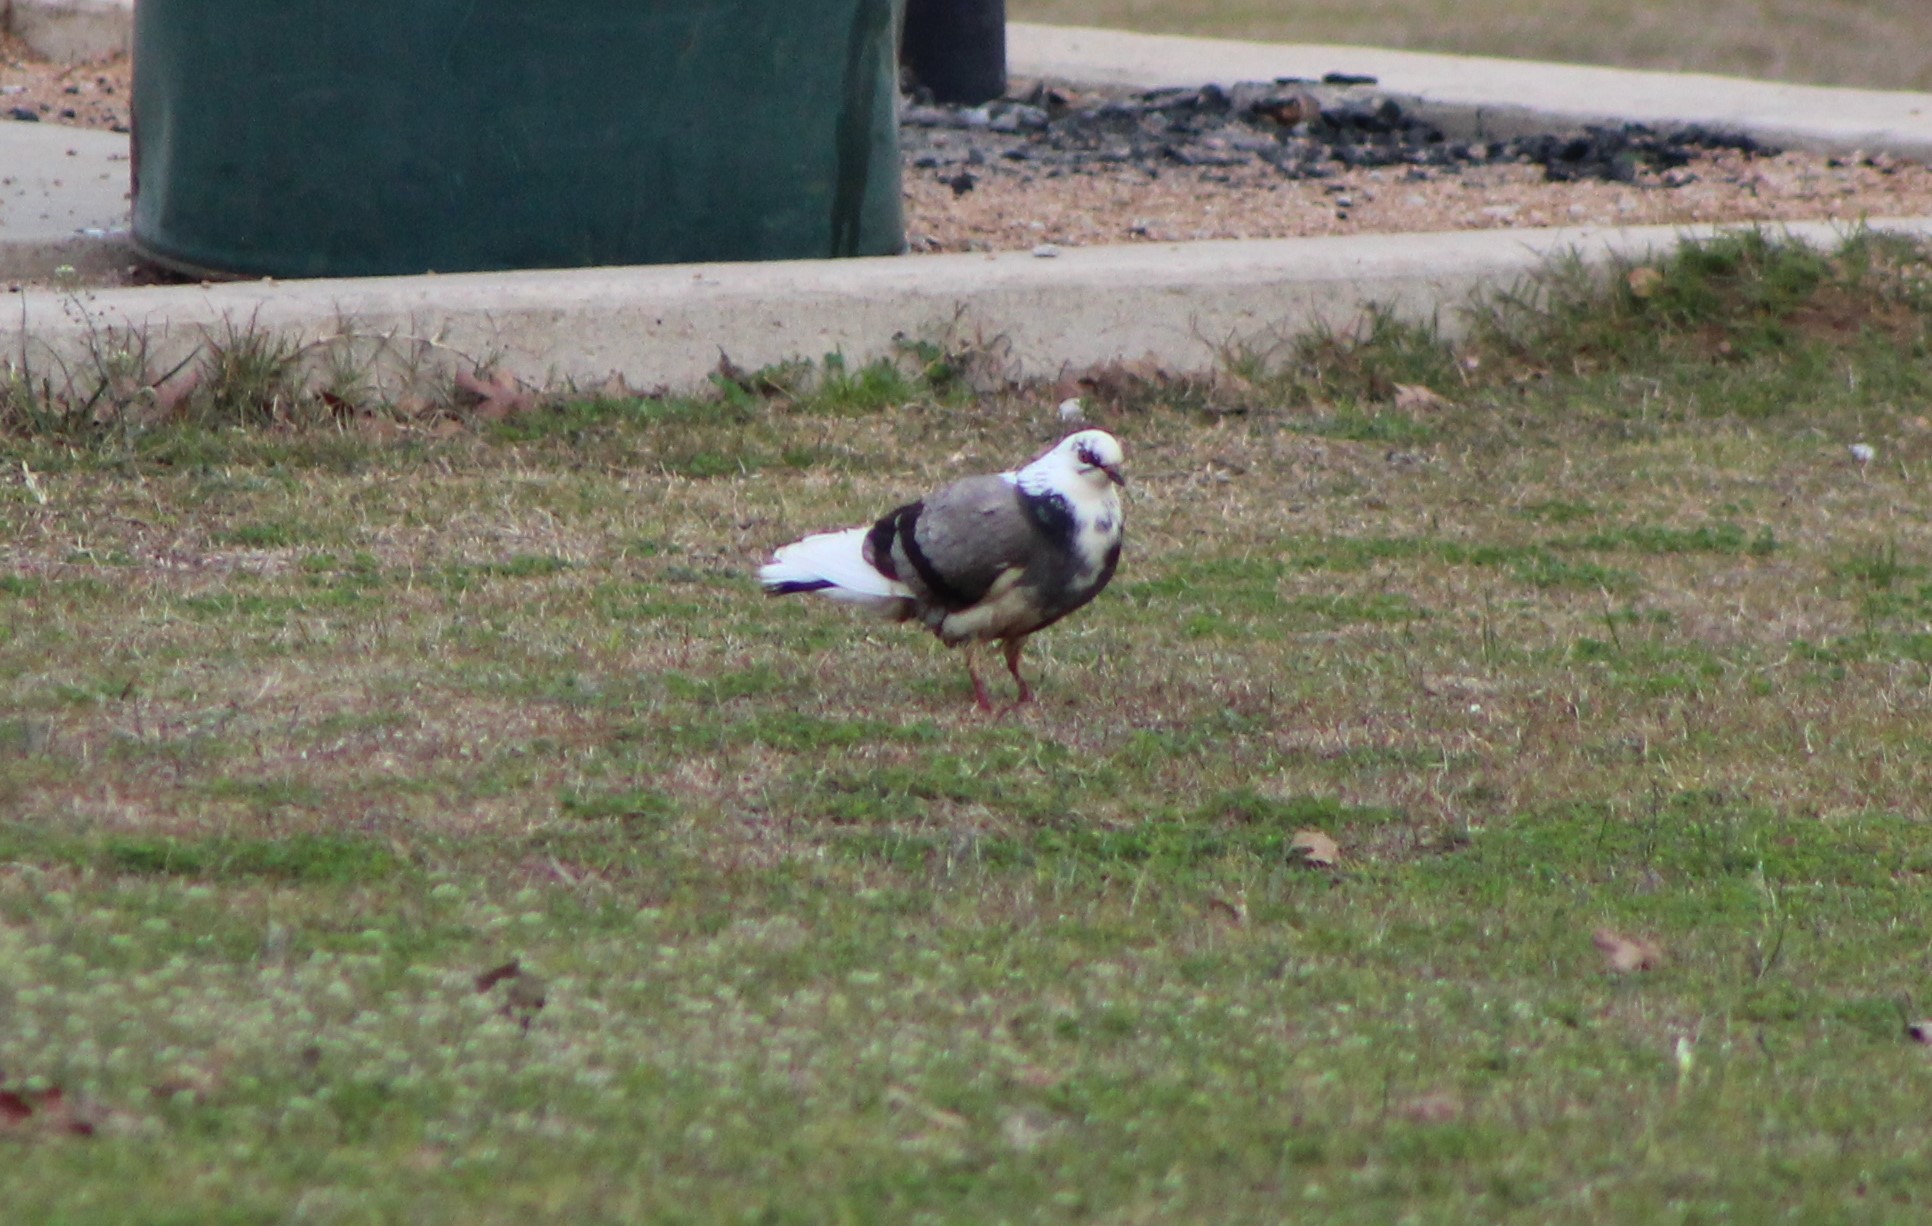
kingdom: Animalia
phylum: Chordata
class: Aves
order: Columbiformes
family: Columbidae
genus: Columba
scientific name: Columba livia
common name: Rock pigeon
